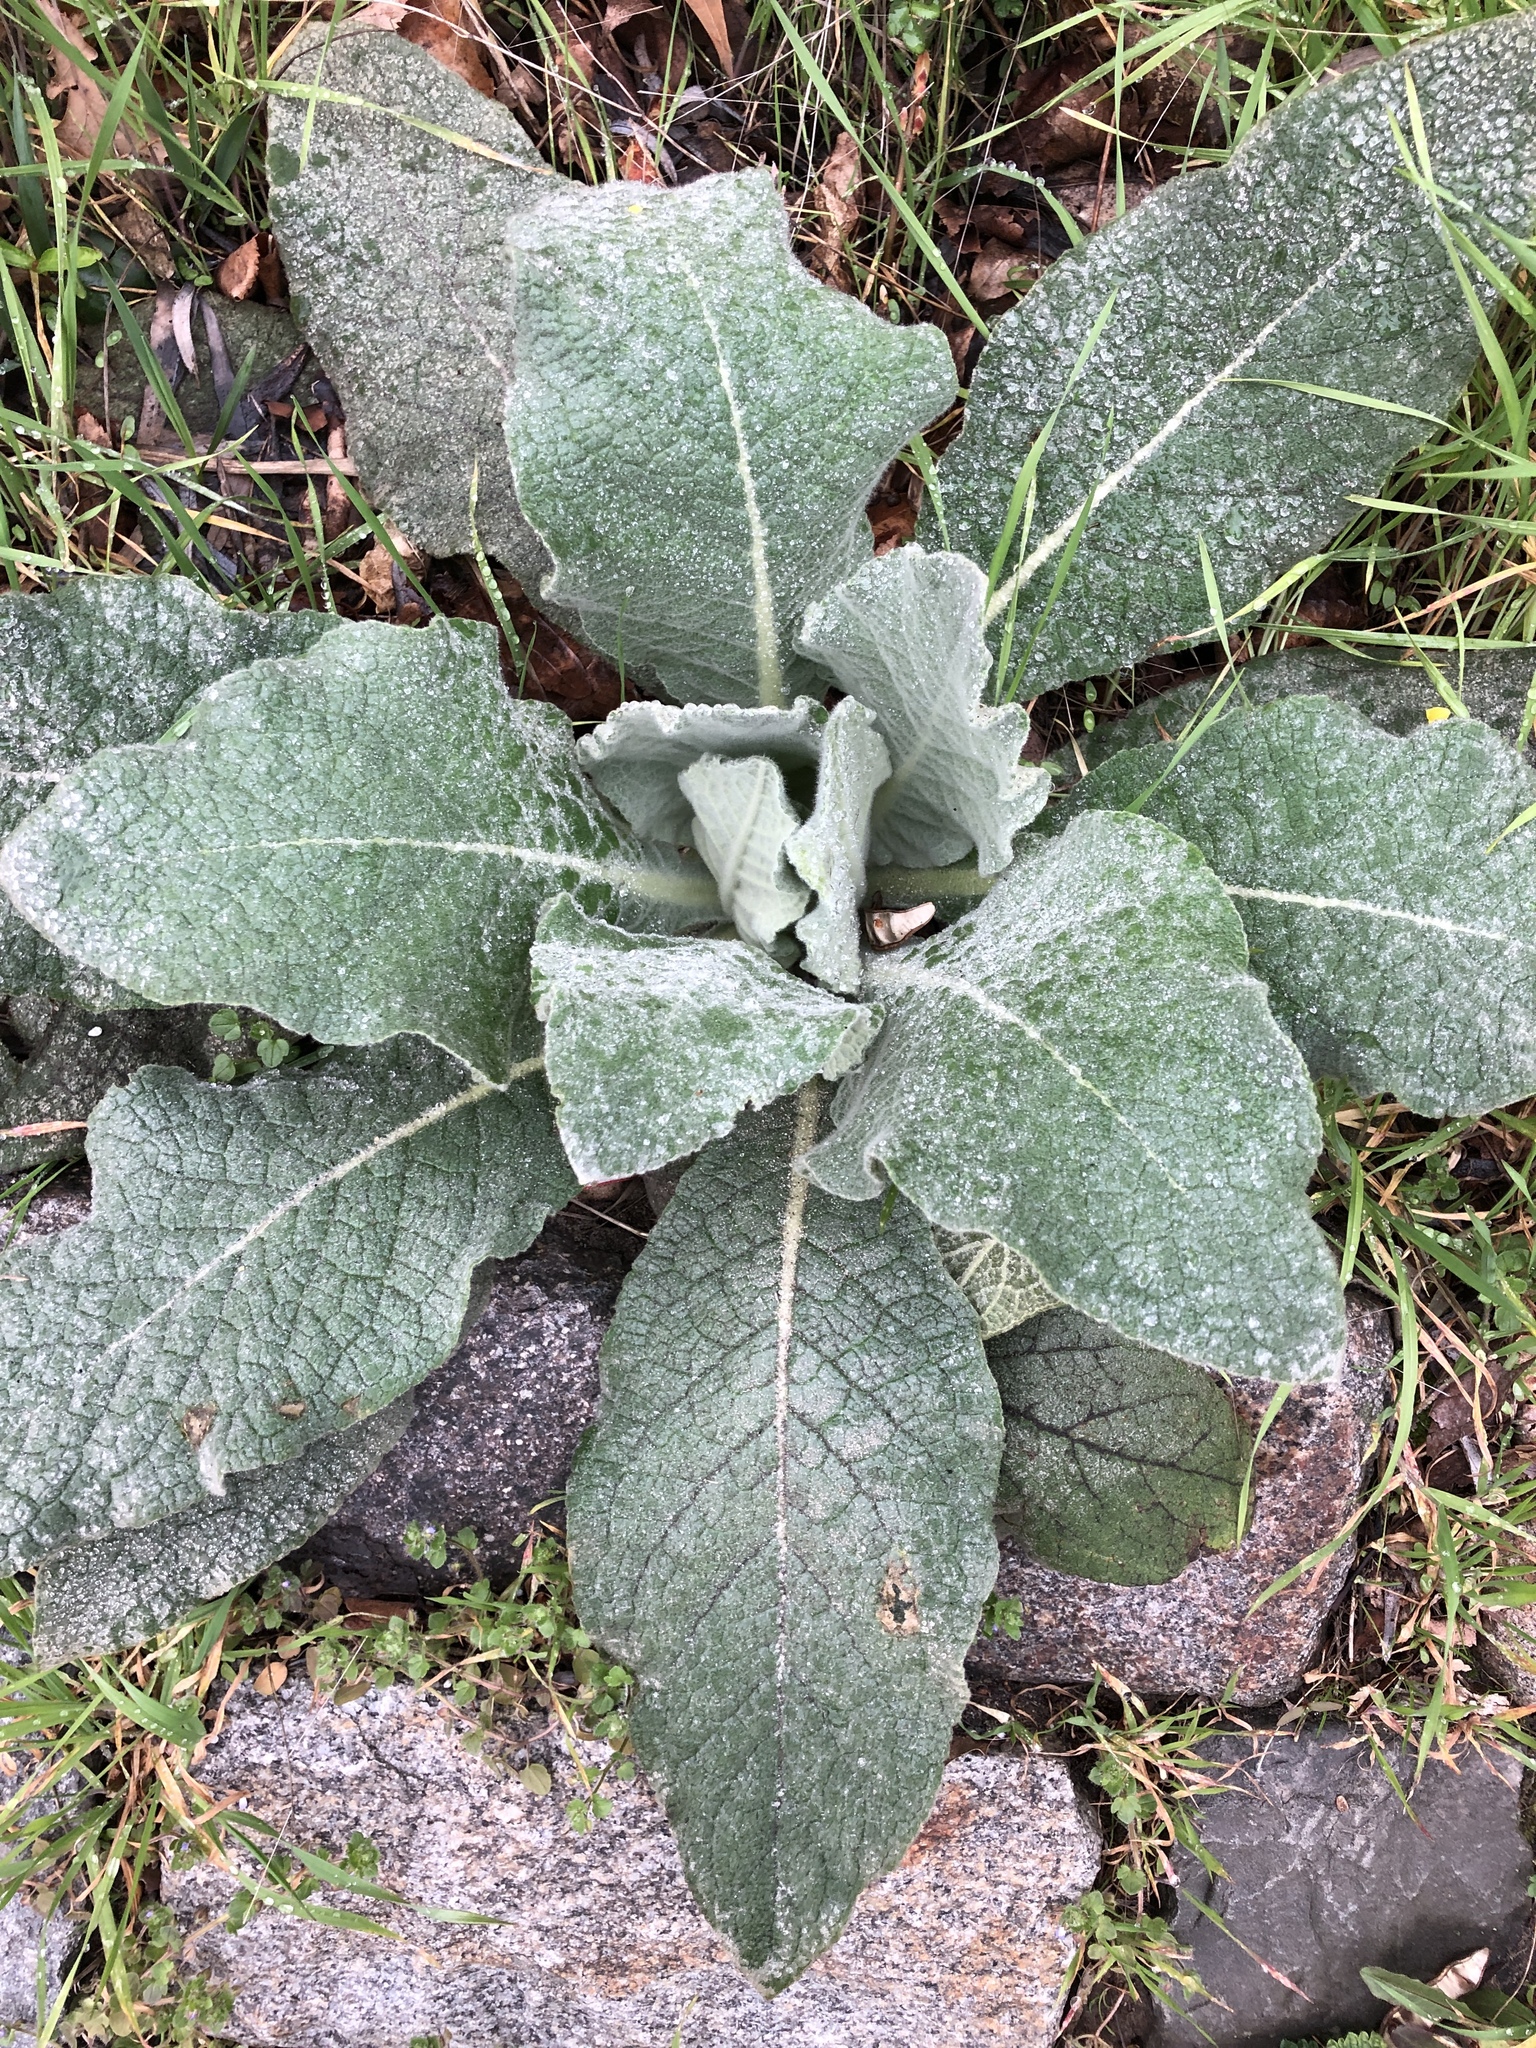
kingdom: Plantae
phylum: Tracheophyta
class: Magnoliopsida
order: Lamiales
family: Scrophulariaceae
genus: Verbascum
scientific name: Verbascum thapsus
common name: Common mullein
